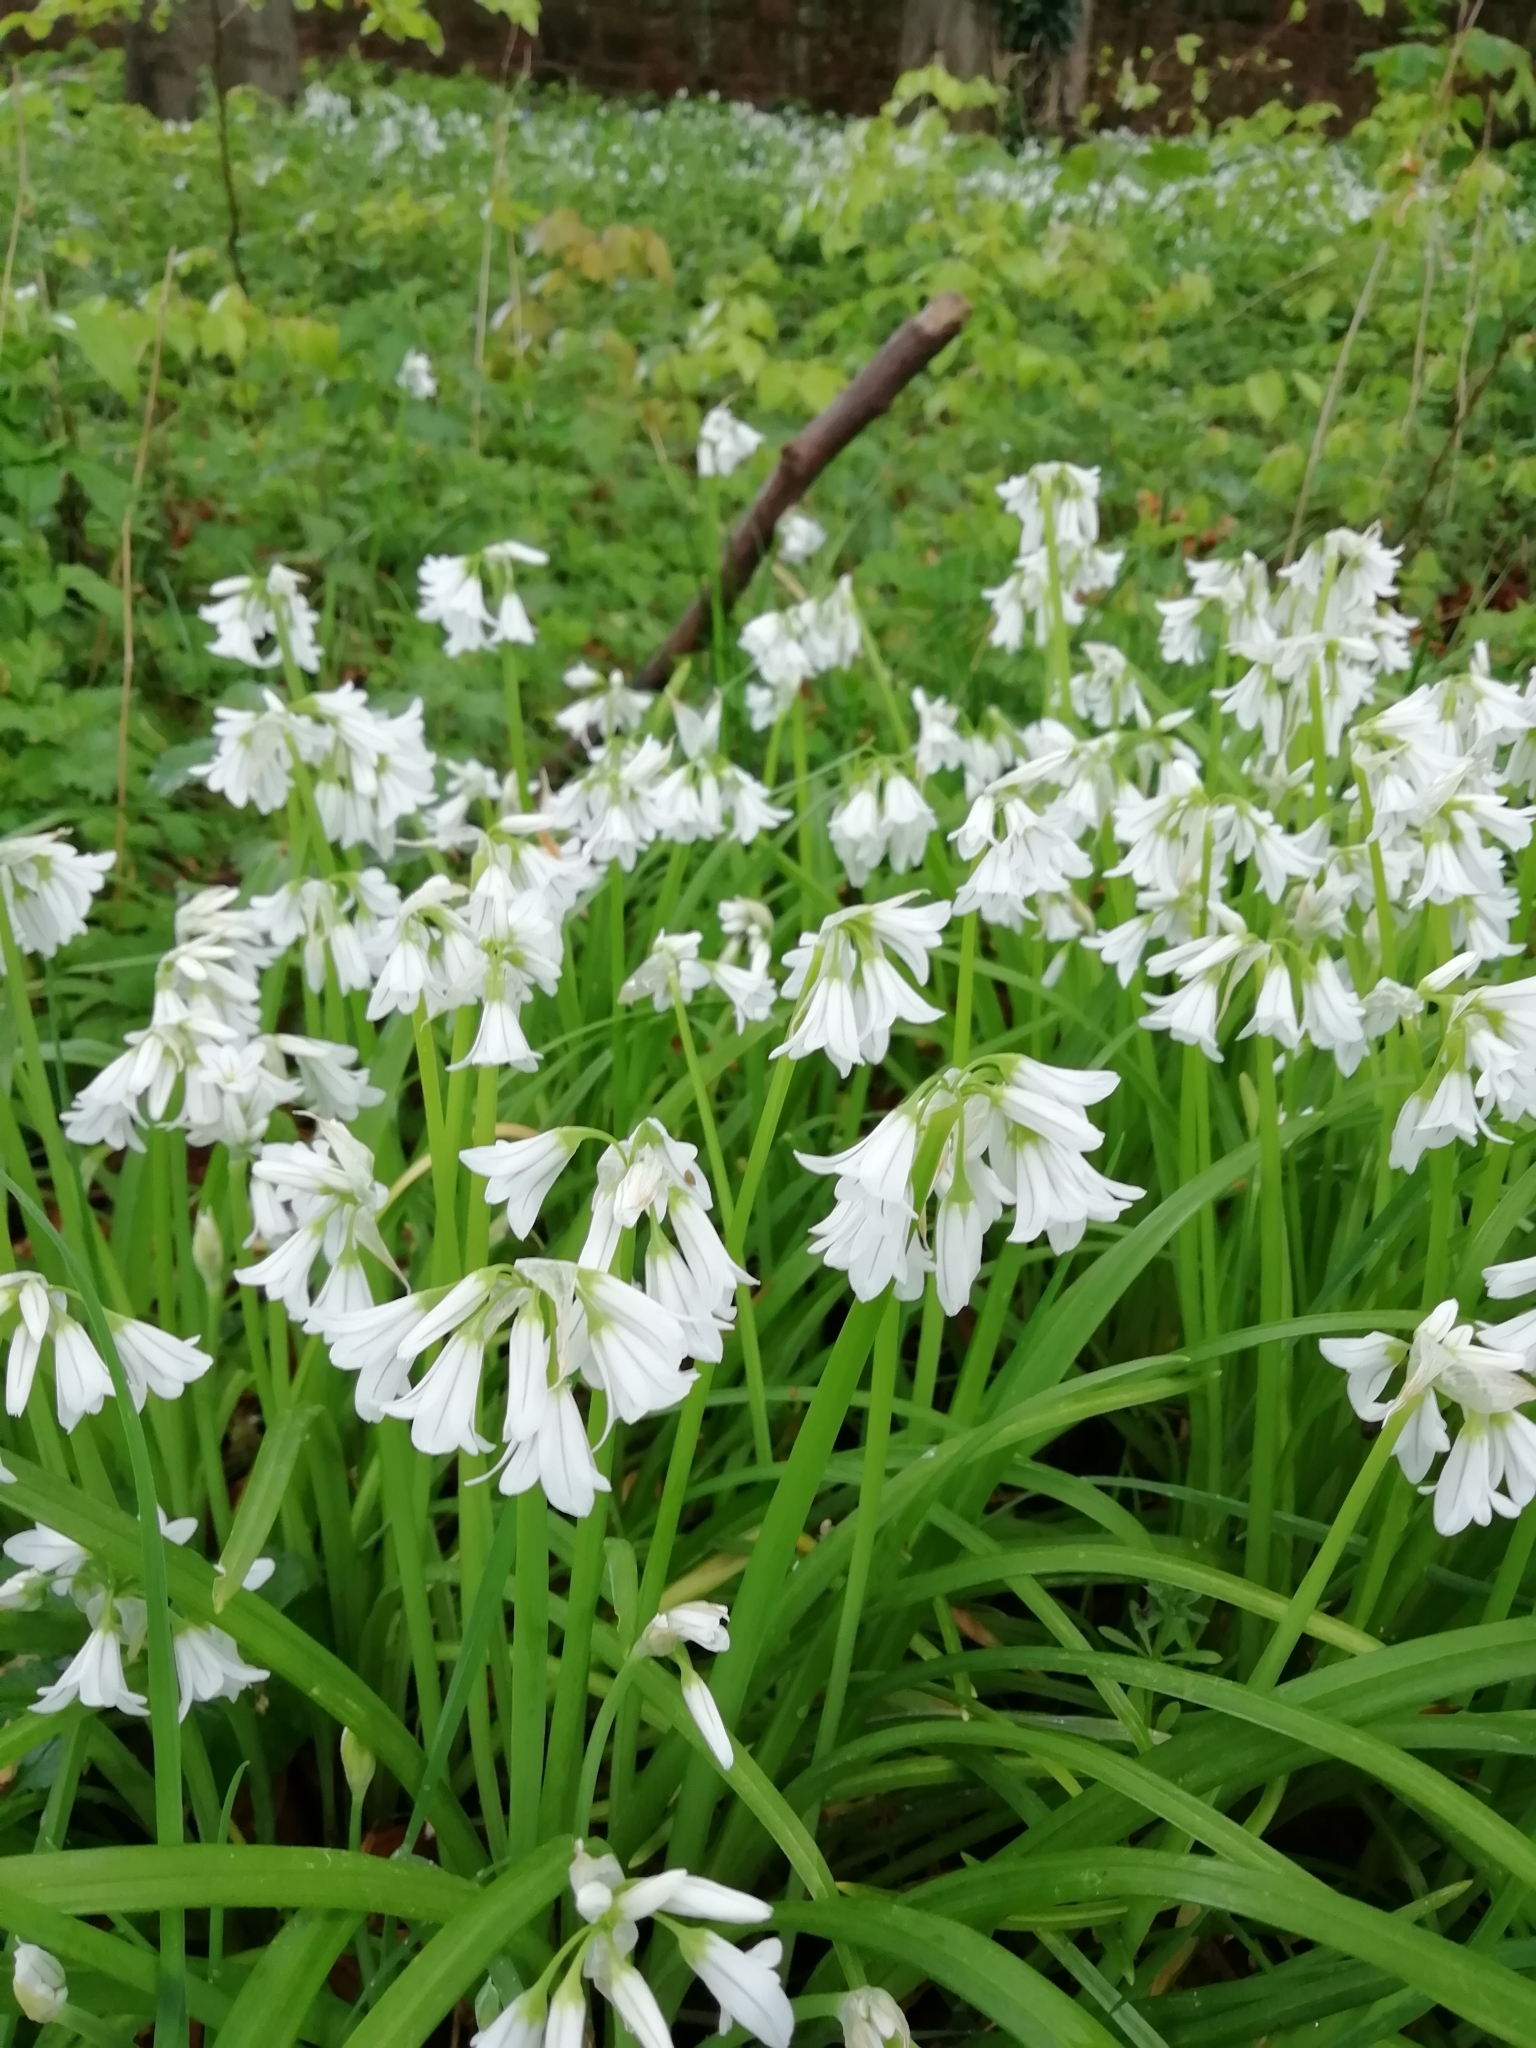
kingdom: Plantae
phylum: Tracheophyta
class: Liliopsida
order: Asparagales
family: Amaryllidaceae
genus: Allium
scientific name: Allium triquetrum
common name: Three-cornered garlic
